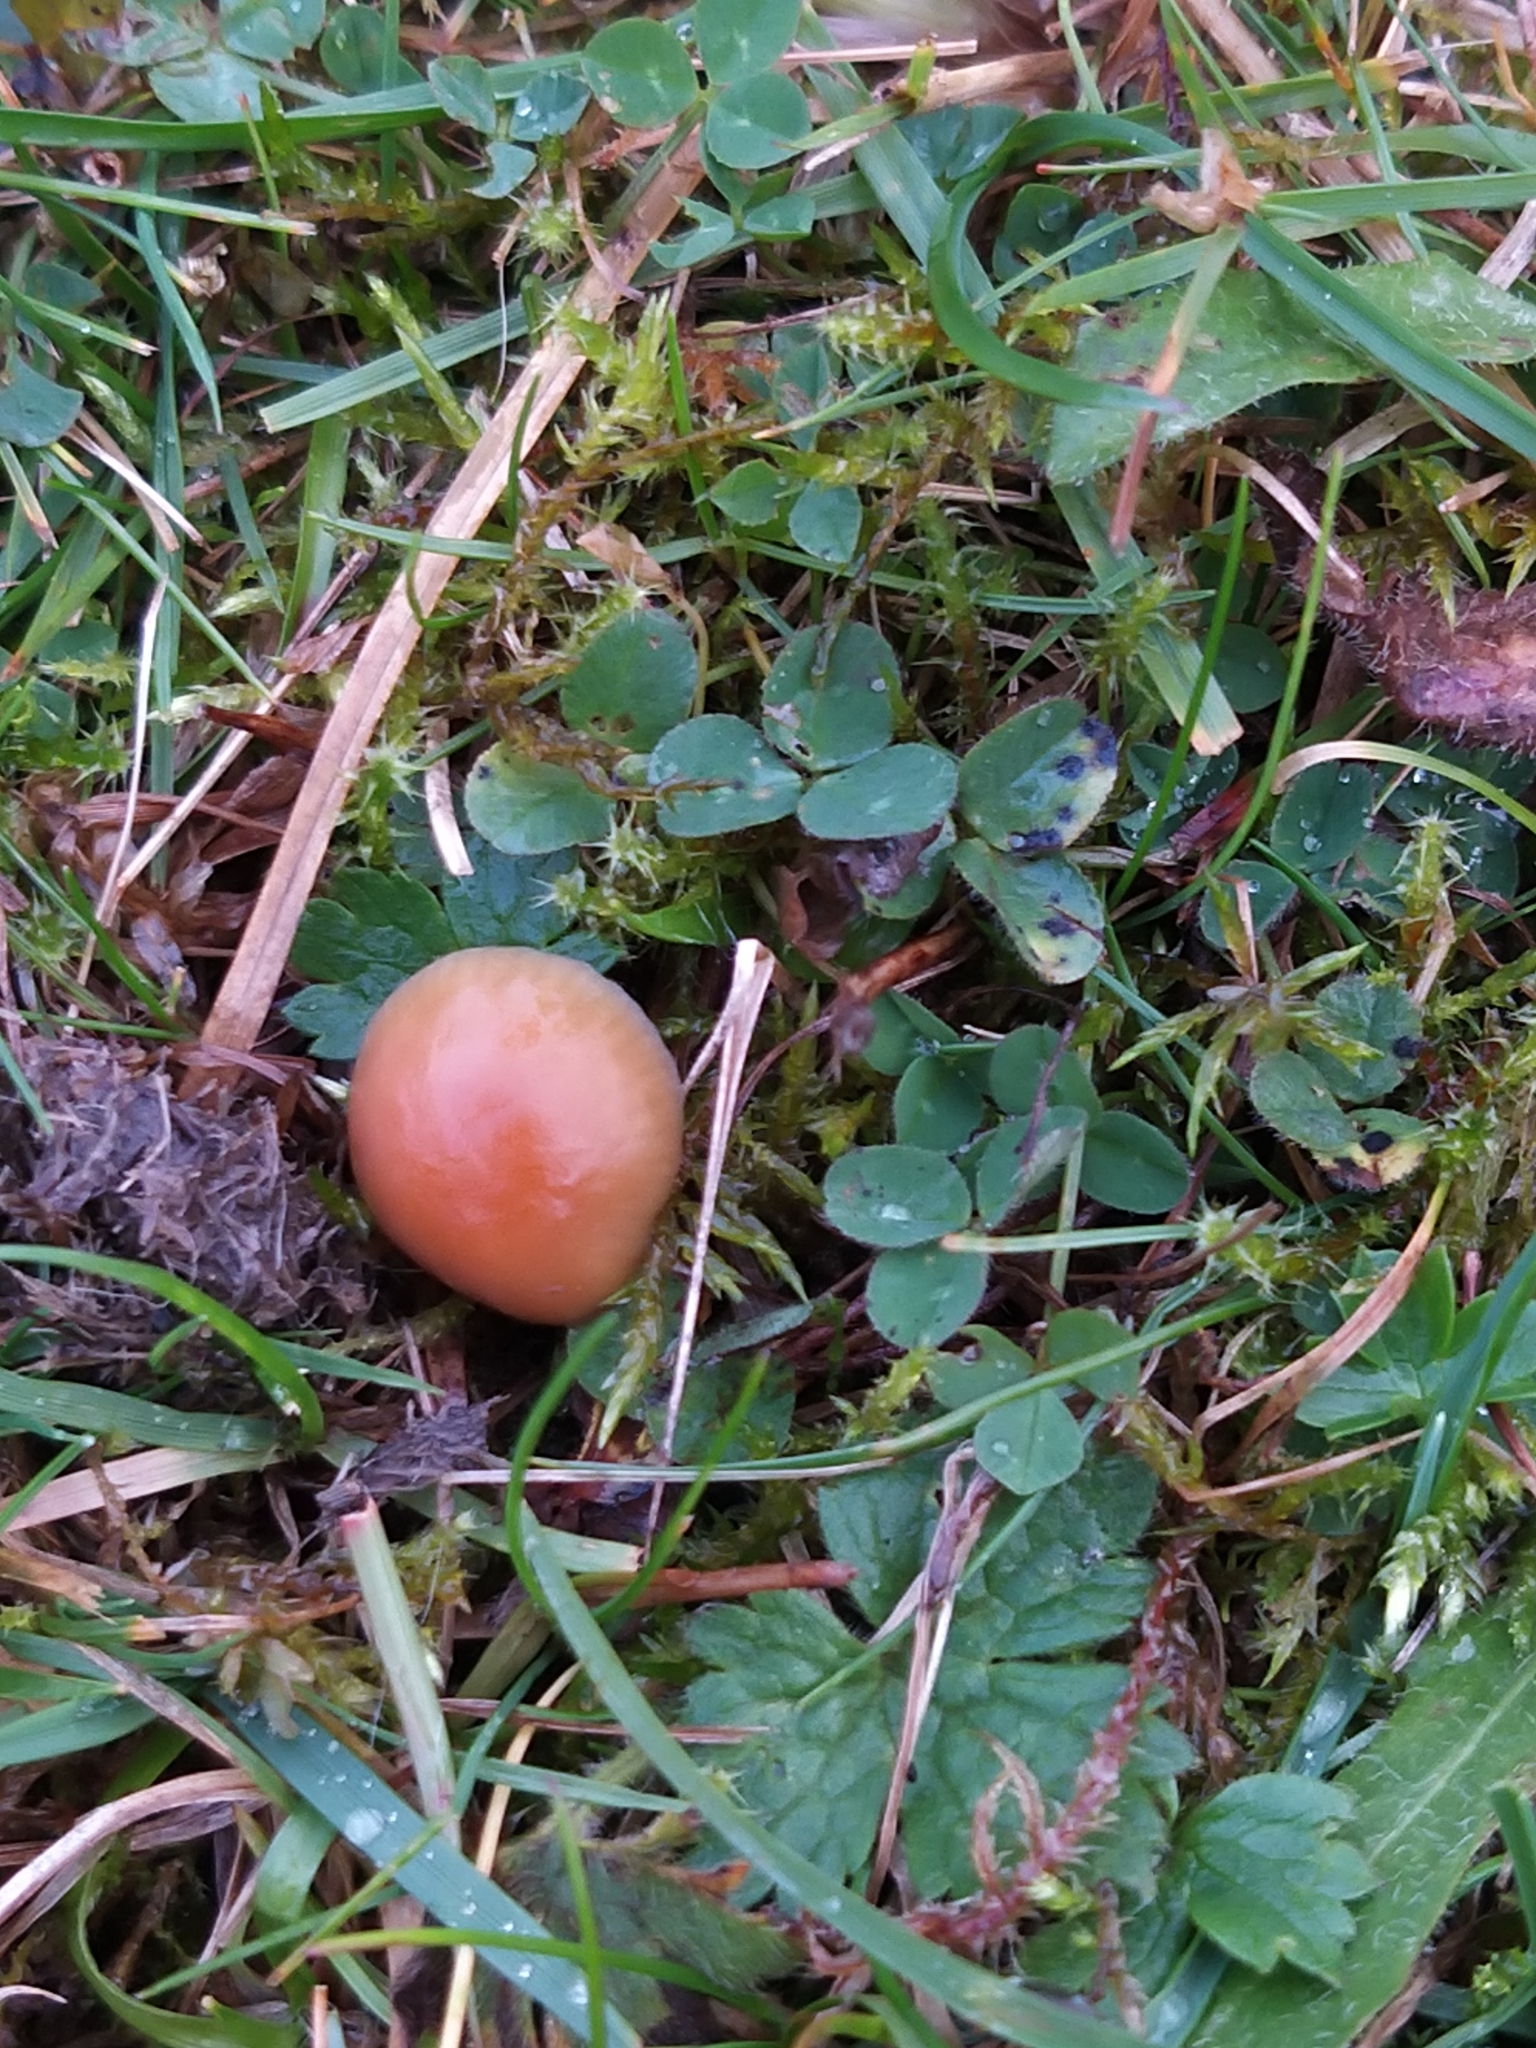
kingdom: Fungi
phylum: Basidiomycota
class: Agaricomycetes
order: Agaricales
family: Hygrophoraceae
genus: Gliophorus
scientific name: Gliophorus laetus
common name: Heath waxcap
